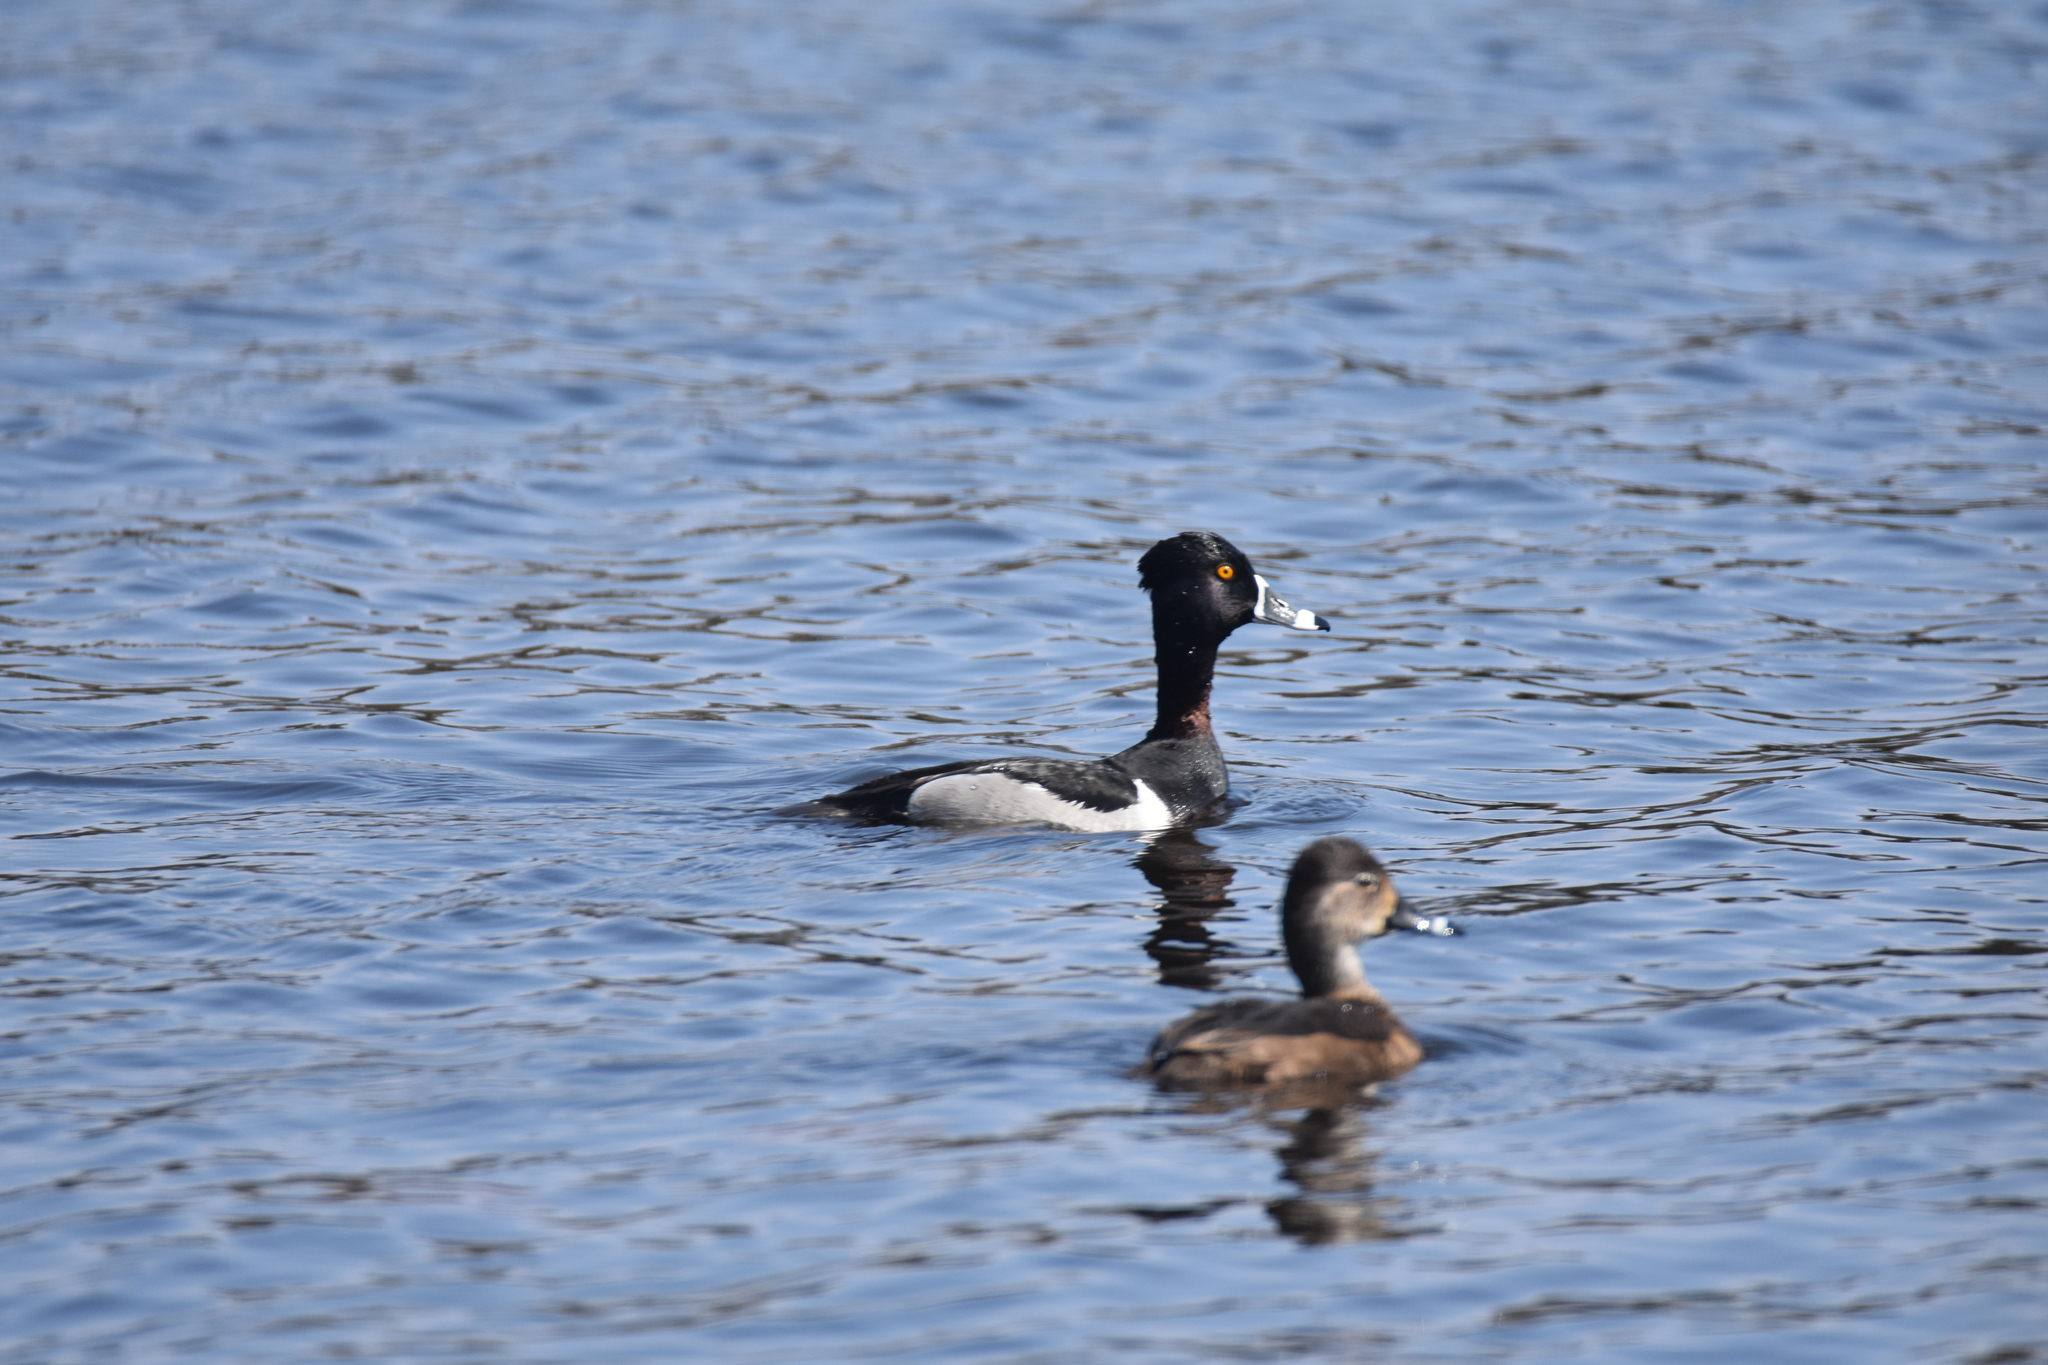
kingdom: Animalia
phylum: Chordata
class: Aves
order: Anseriformes
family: Anatidae
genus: Aythya
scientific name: Aythya collaris
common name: Ring-necked duck
